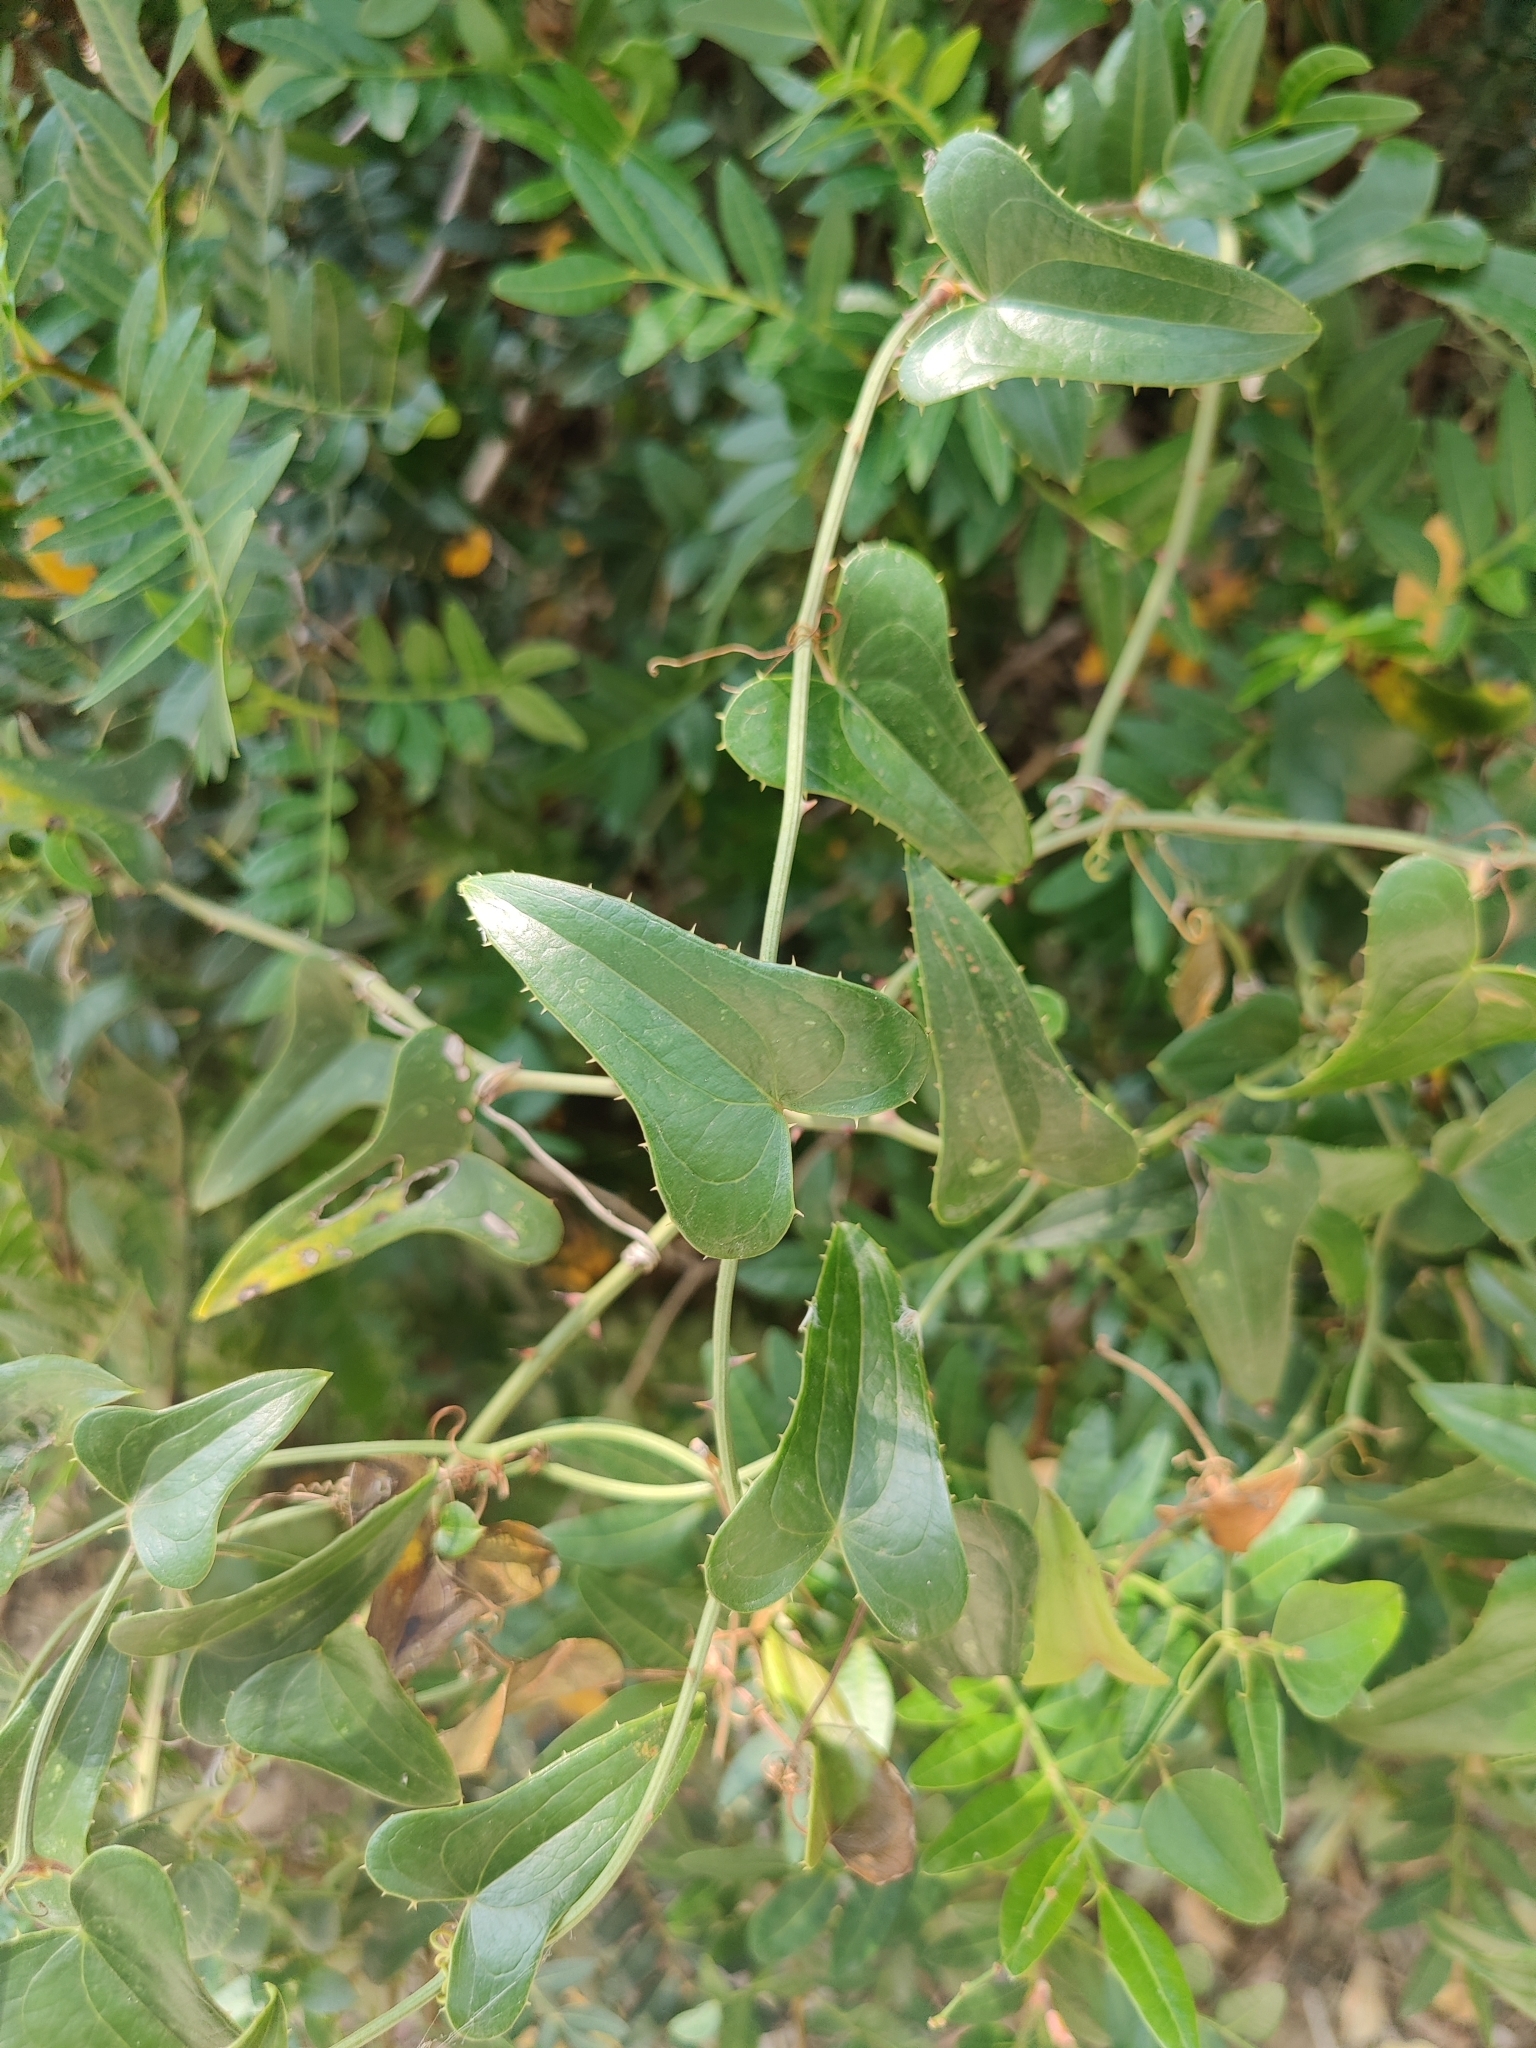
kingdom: Plantae
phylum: Tracheophyta
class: Liliopsida
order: Liliales
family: Smilacaceae
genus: Smilax
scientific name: Smilax aspera
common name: Common smilax
